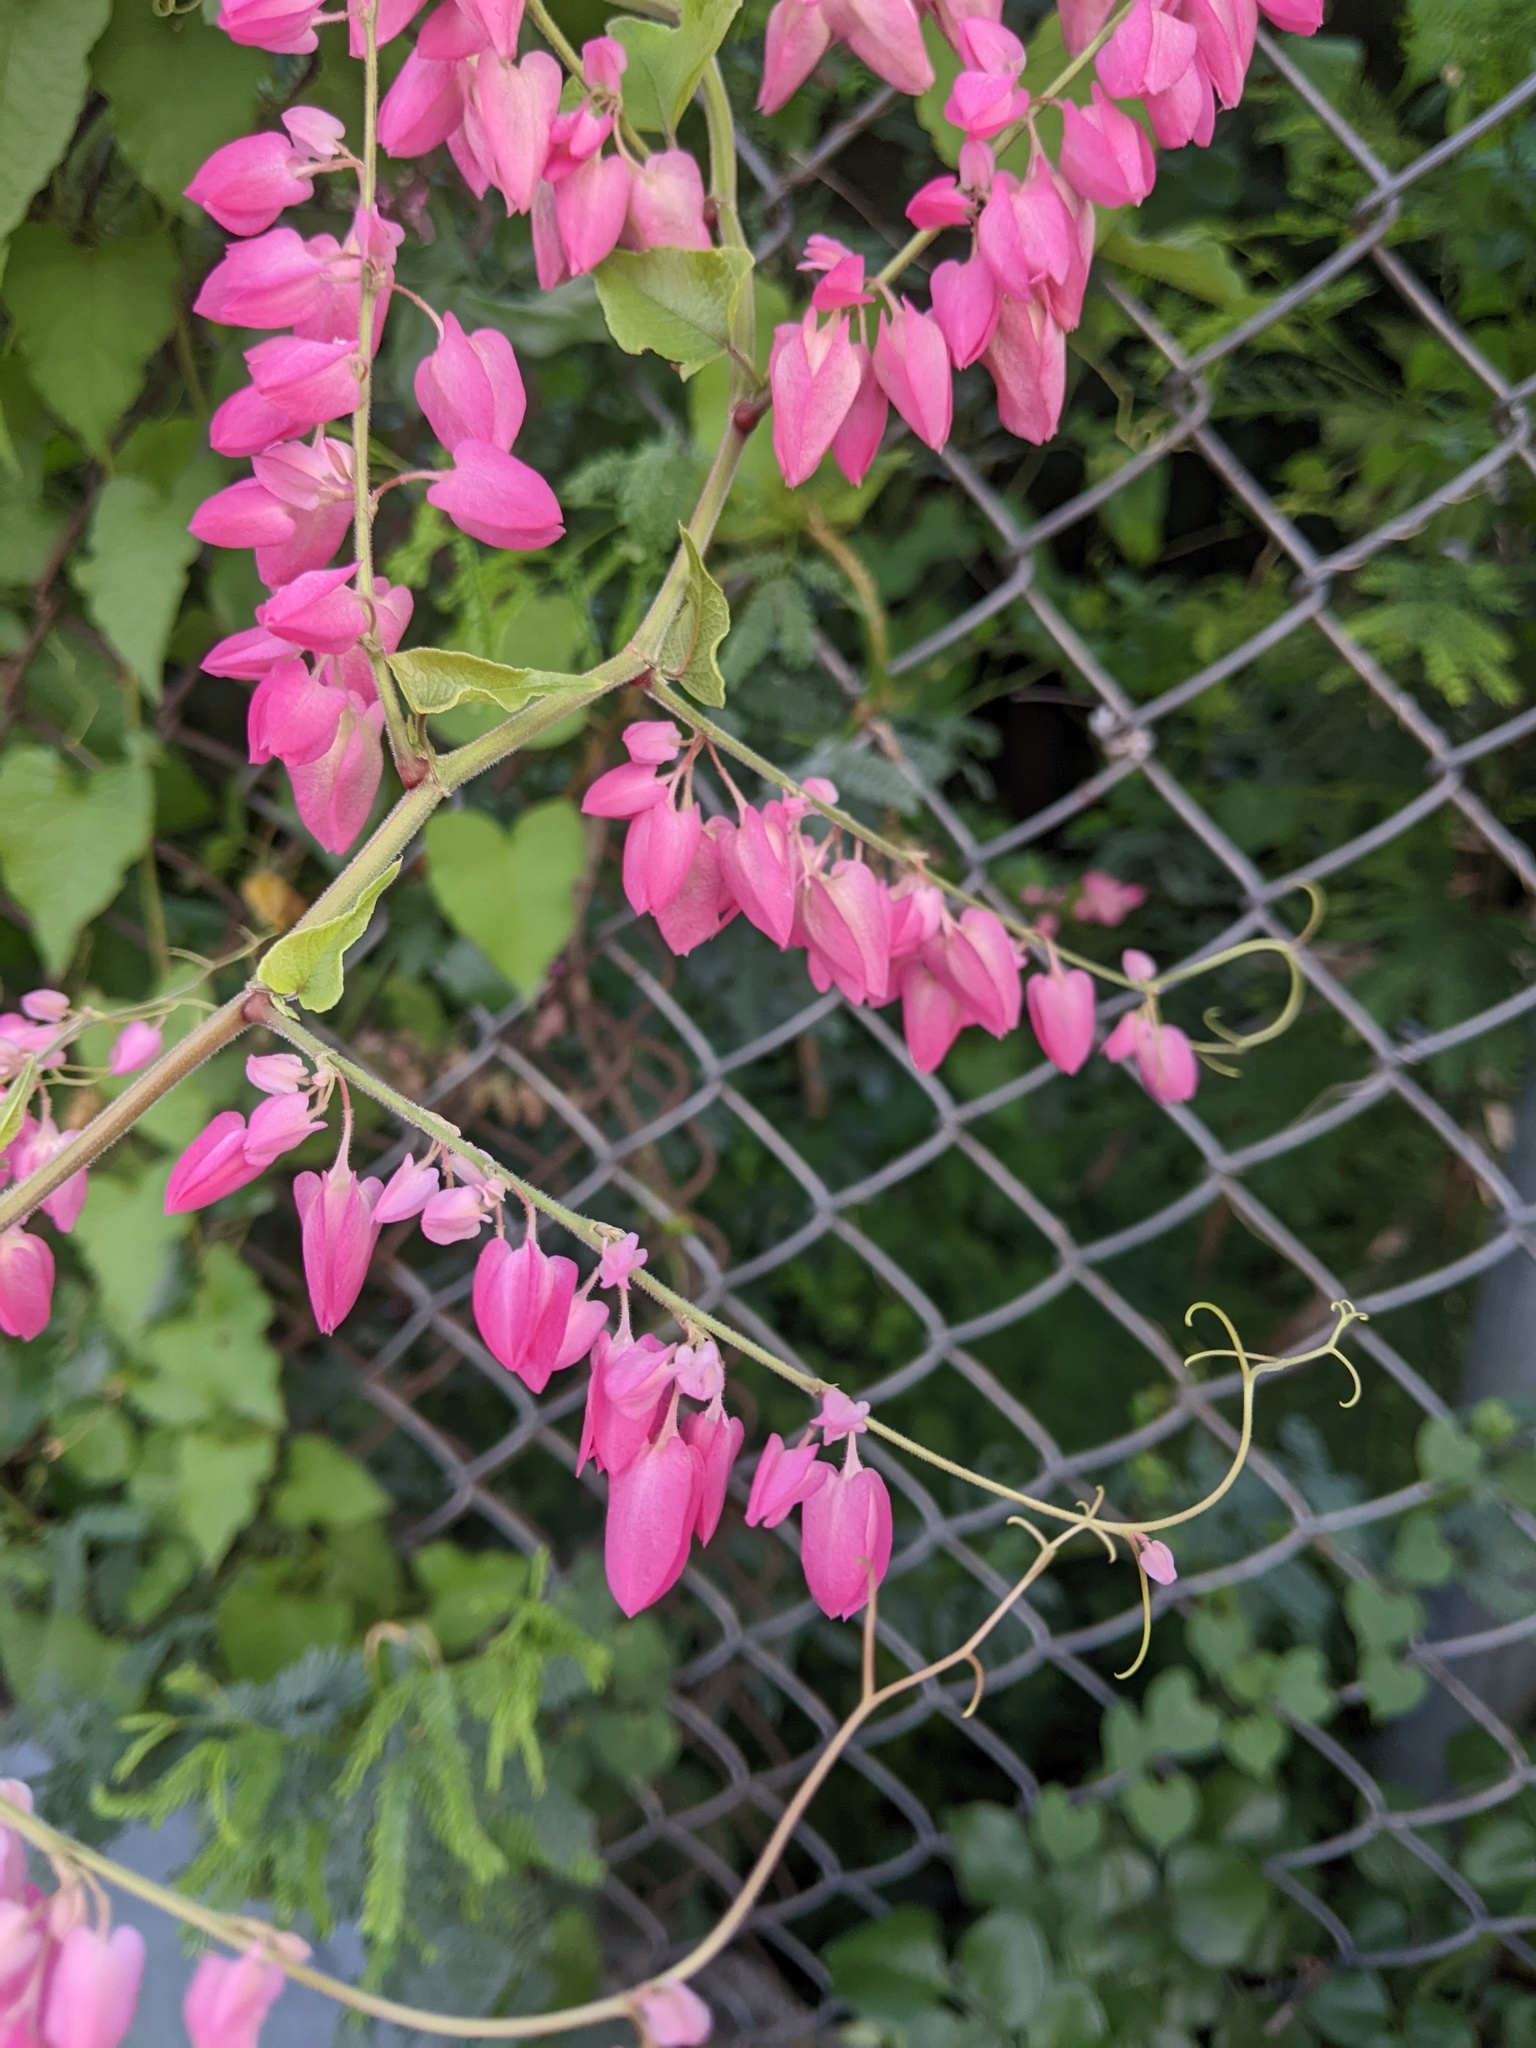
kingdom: Plantae
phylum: Tracheophyta
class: Magnoliopsida
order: Caryophyllales
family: Polygonaceae
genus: Antigonon
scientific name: Antigonon leptopus
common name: Coral vine
